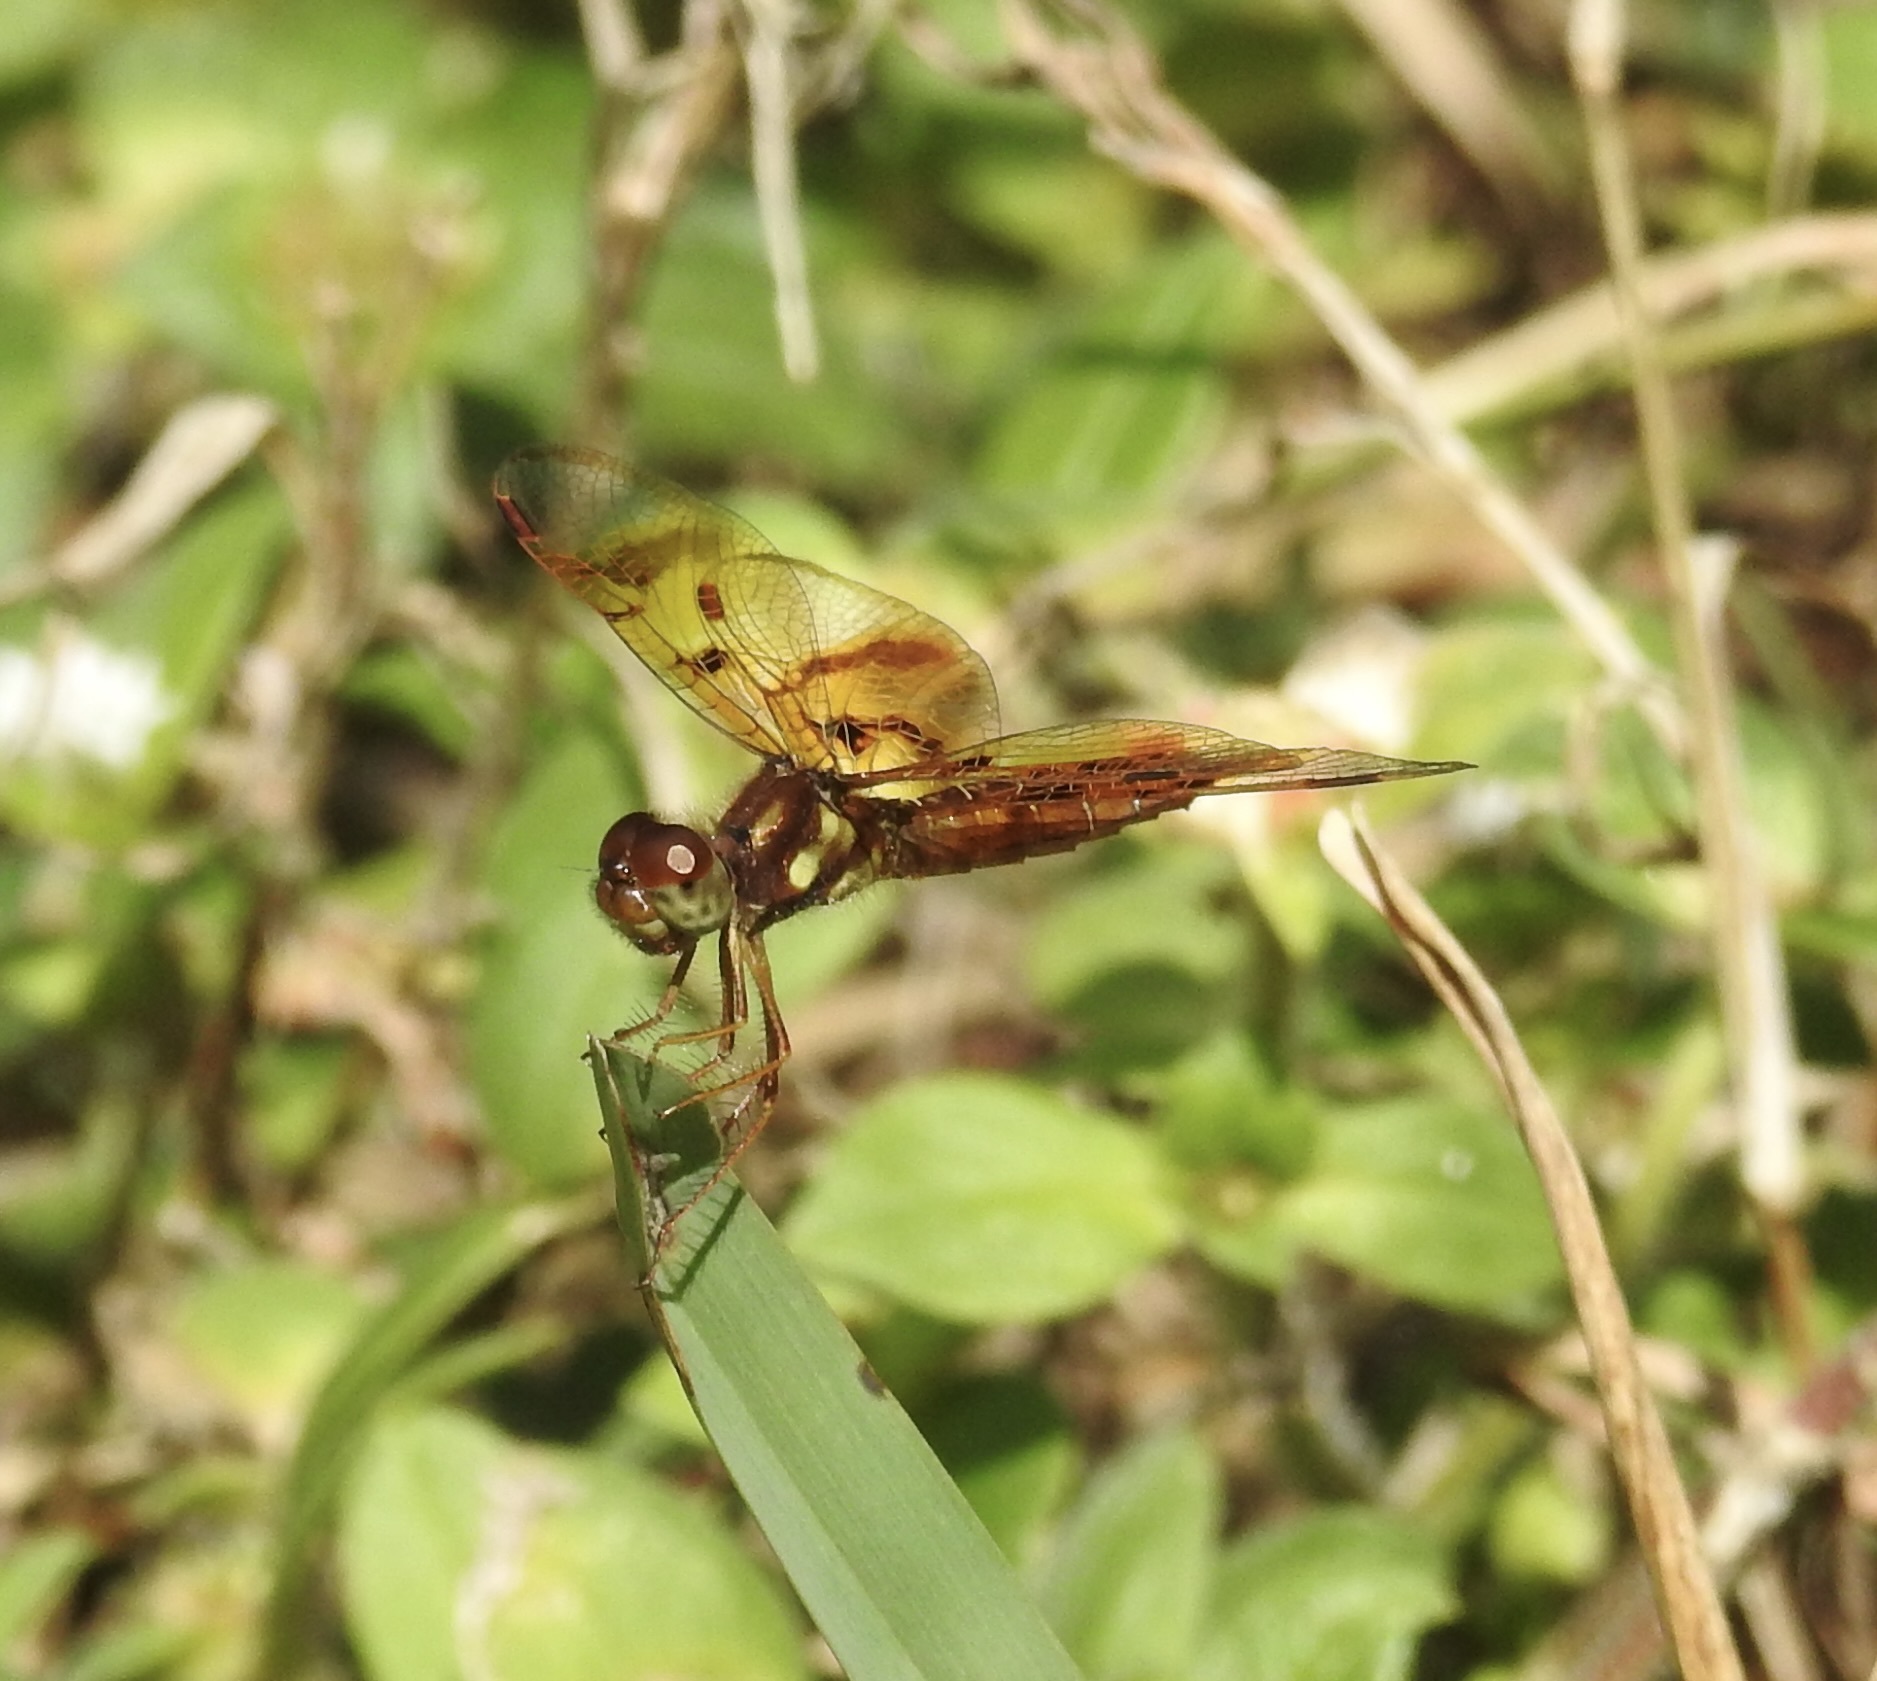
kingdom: Animalia
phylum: Arthropoda
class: Insecta
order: Odonata
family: Libellulidae
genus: Perithemis
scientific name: Perithemis tenera
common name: Eastern amberwing
